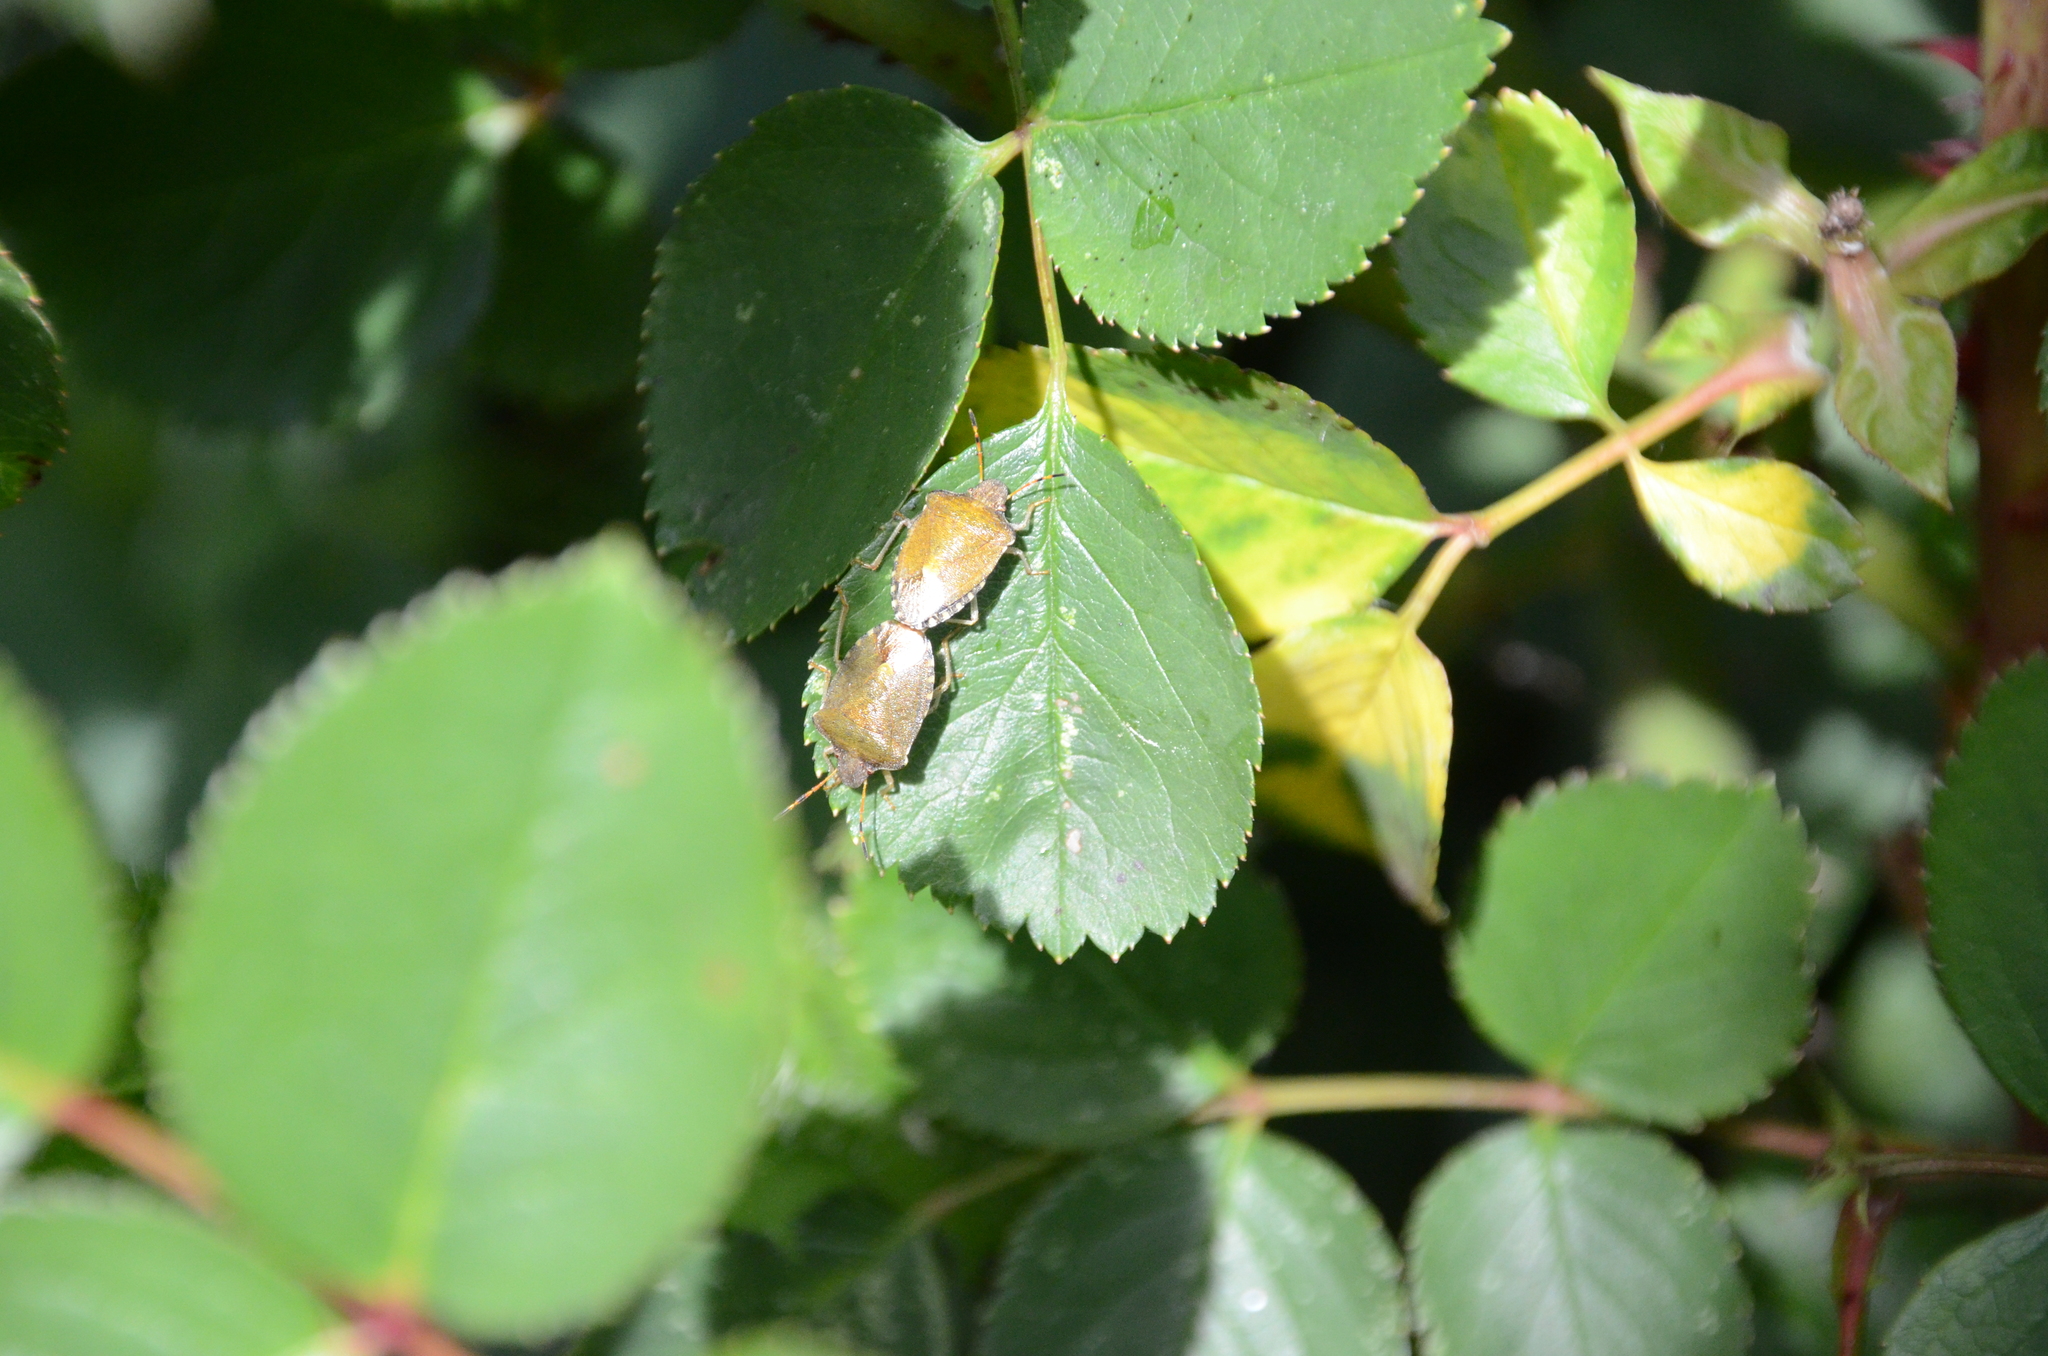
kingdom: Animalia
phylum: Arthropoda
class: Insecta
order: Hemiptera
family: Pentatomidae
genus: Holcostethus
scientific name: Holcostethus strictus
